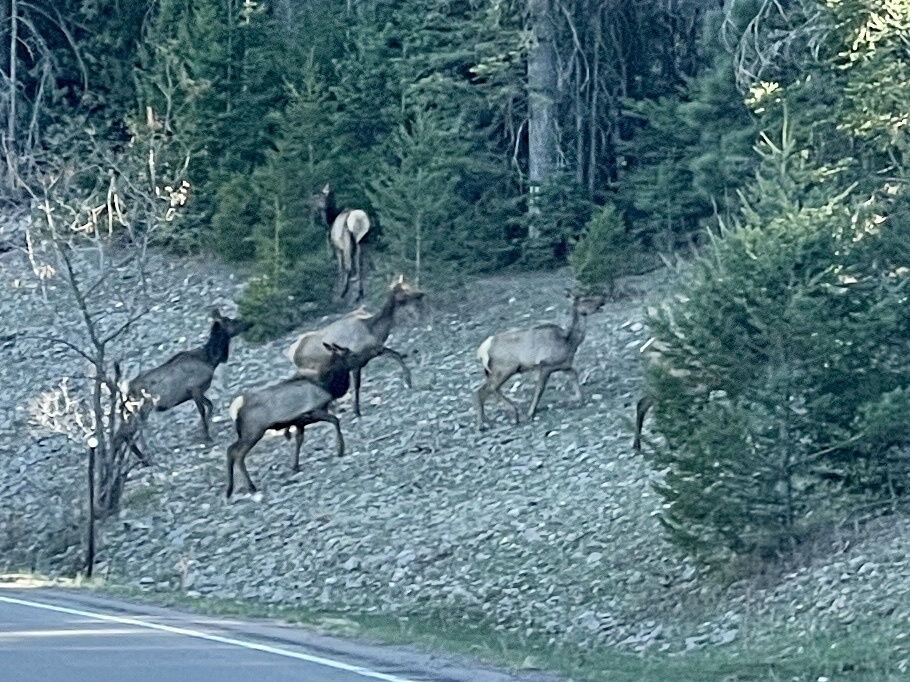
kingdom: Animalia
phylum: Chordata
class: Mammalia
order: Artiodactyla
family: Cervidae
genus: Cervus
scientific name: Cervus elaphus
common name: Red deer
